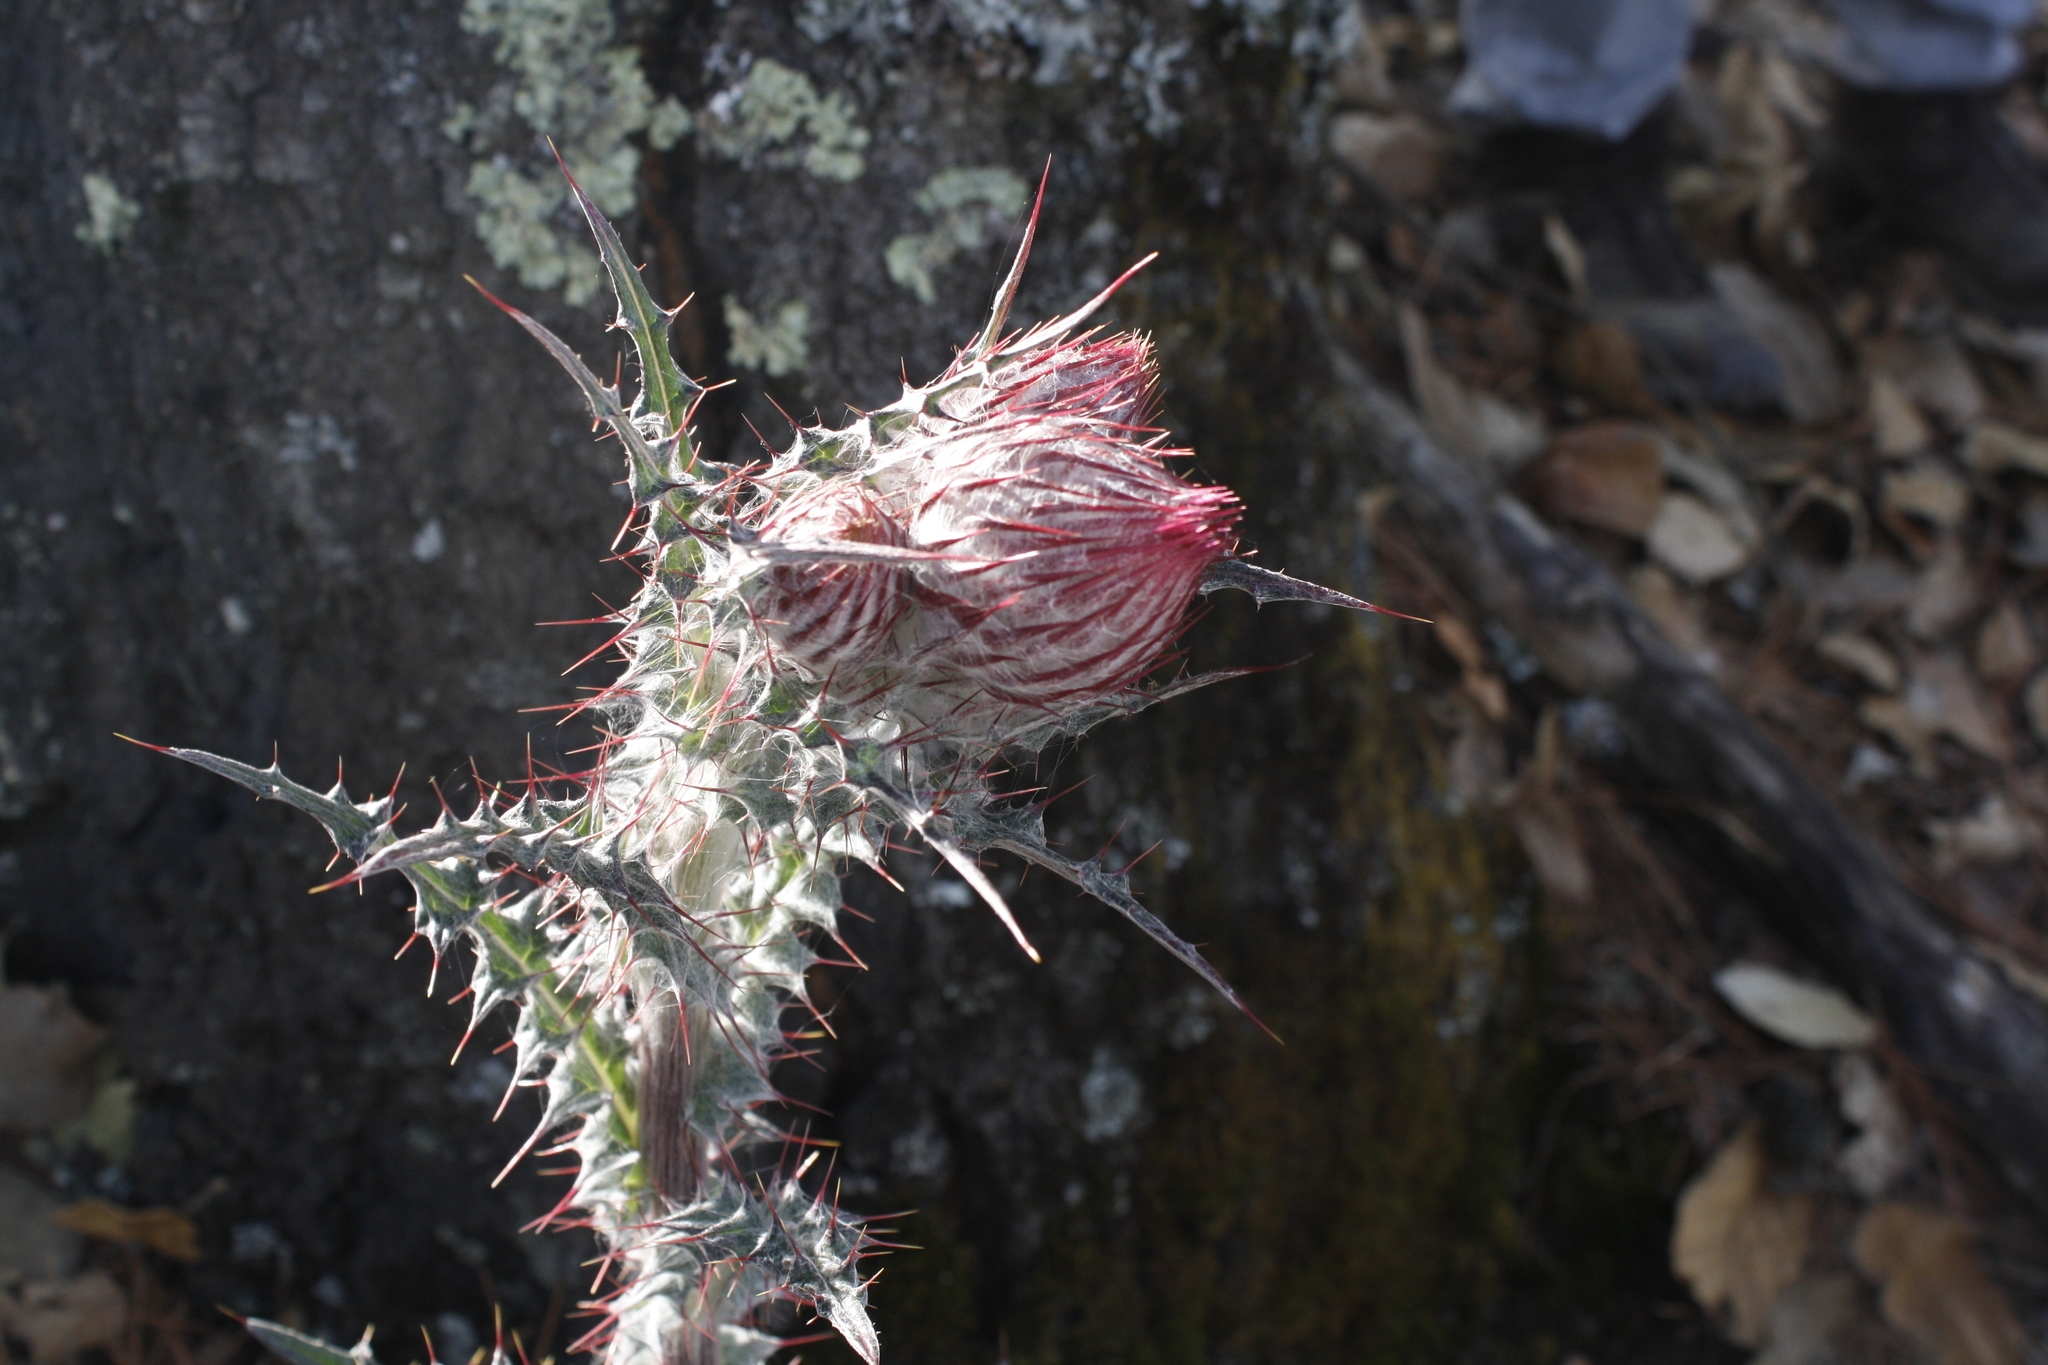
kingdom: Plantae
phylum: Tracheophyta
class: Magnoliopsida
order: Asterales
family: Asteraceae
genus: Cirsium
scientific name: Cirsium ehrenbergii
